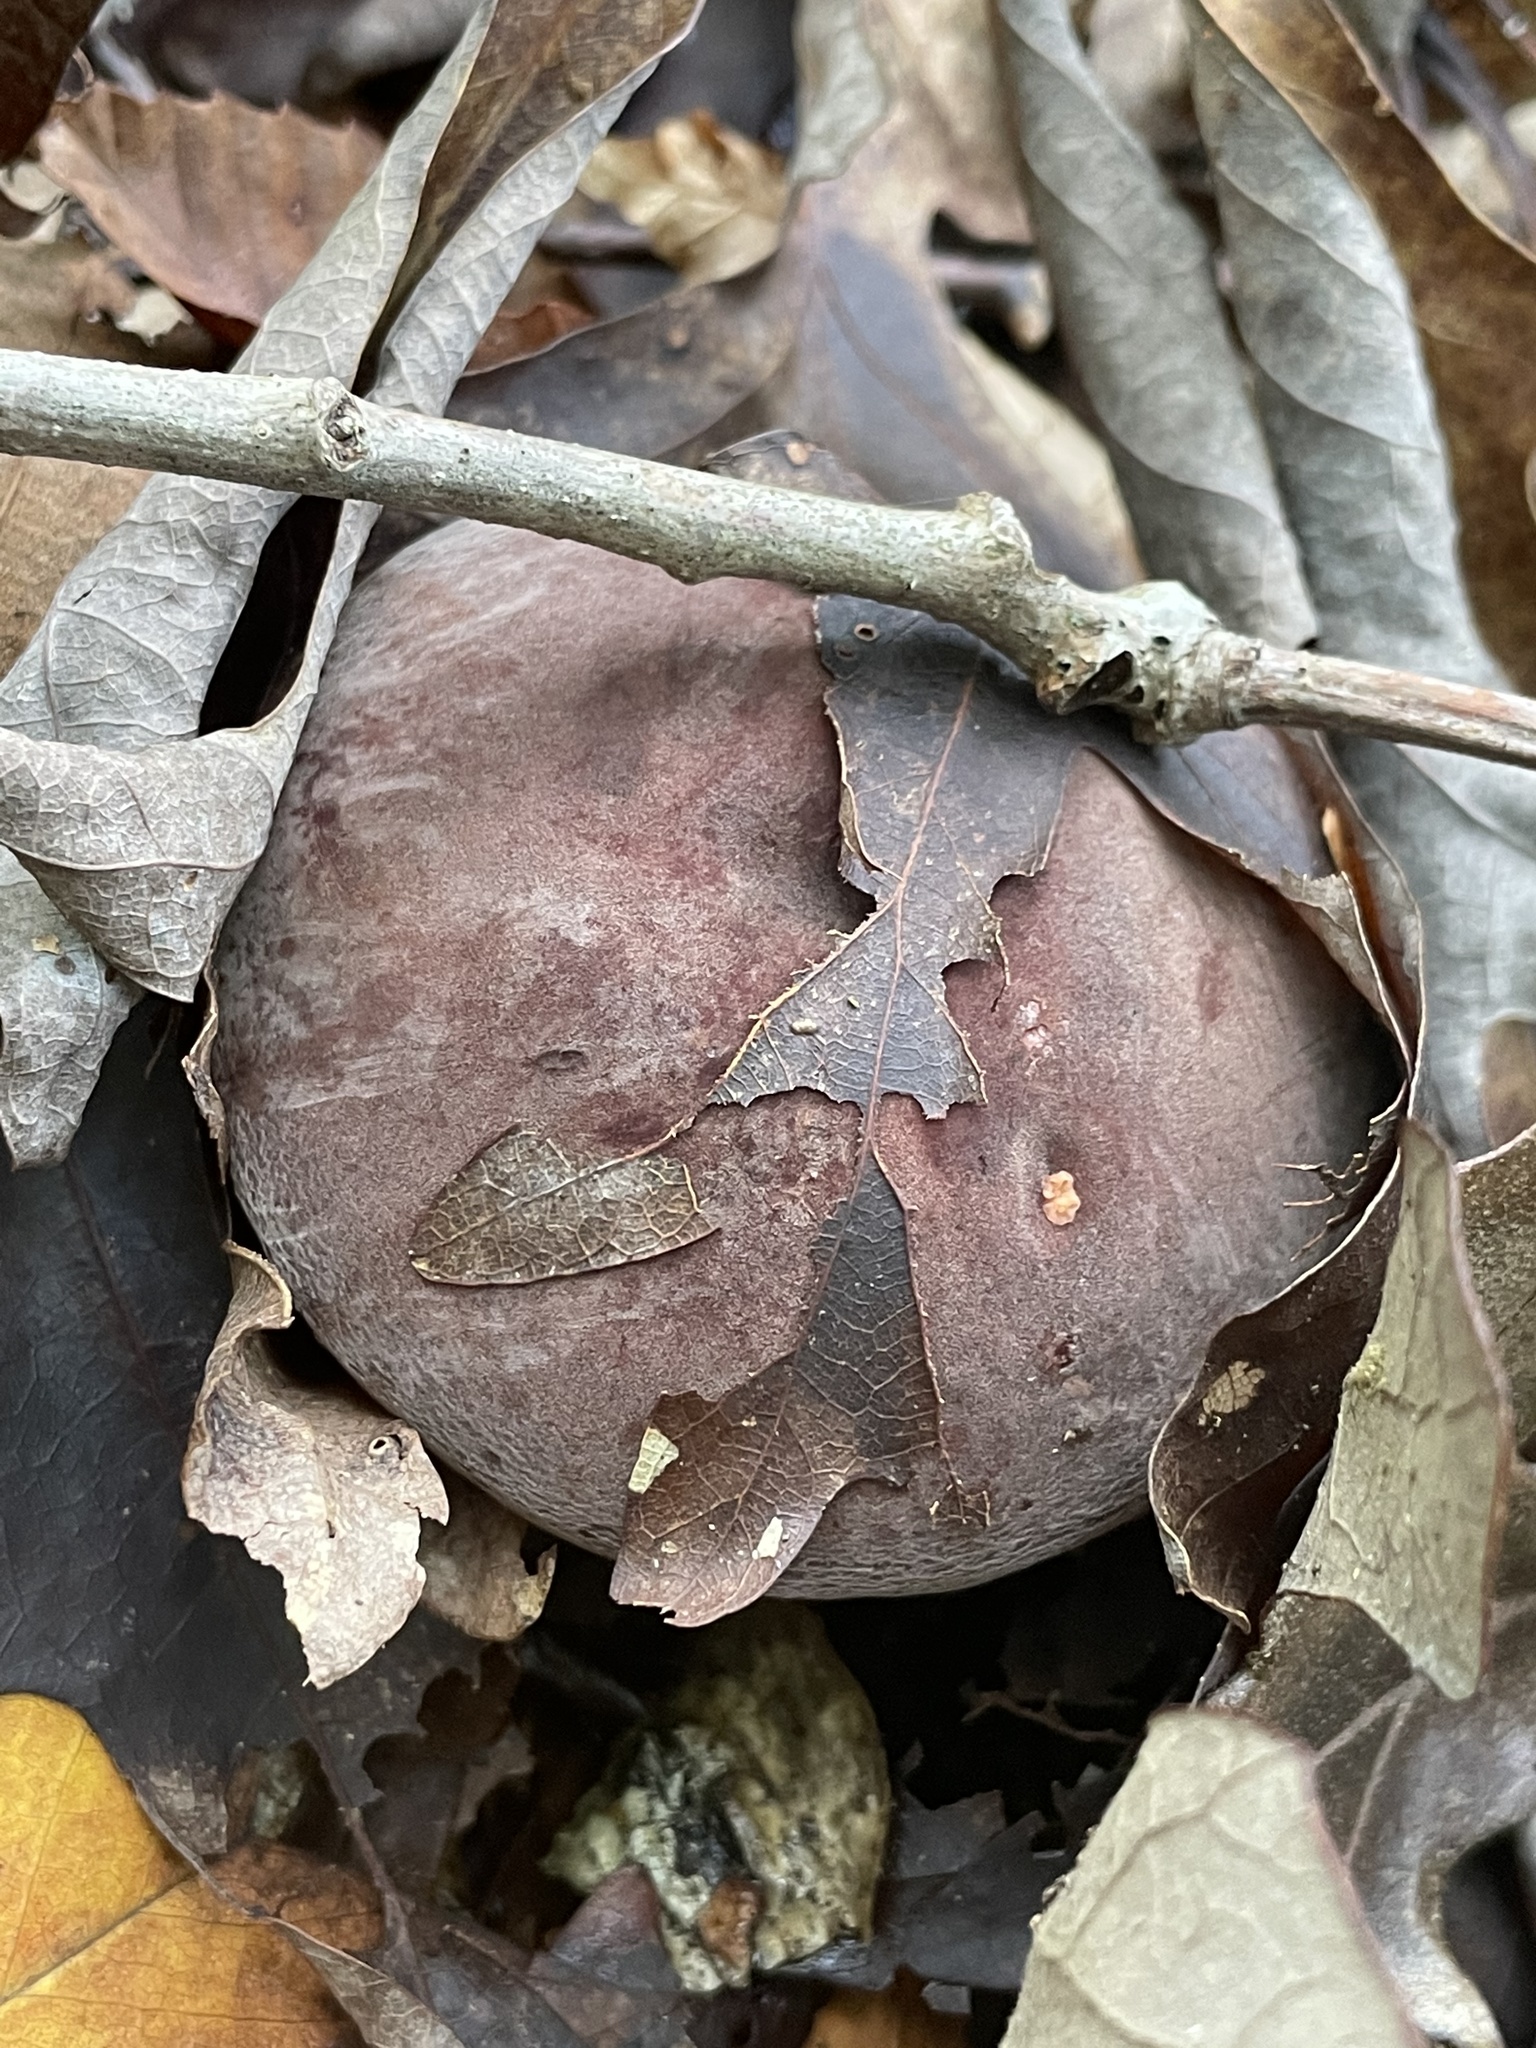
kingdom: Fungi
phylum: Basidiomycota
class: Agaricomycetes
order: Russulales
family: Russulaceae
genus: Lactarius
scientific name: Lactarius corrugis
